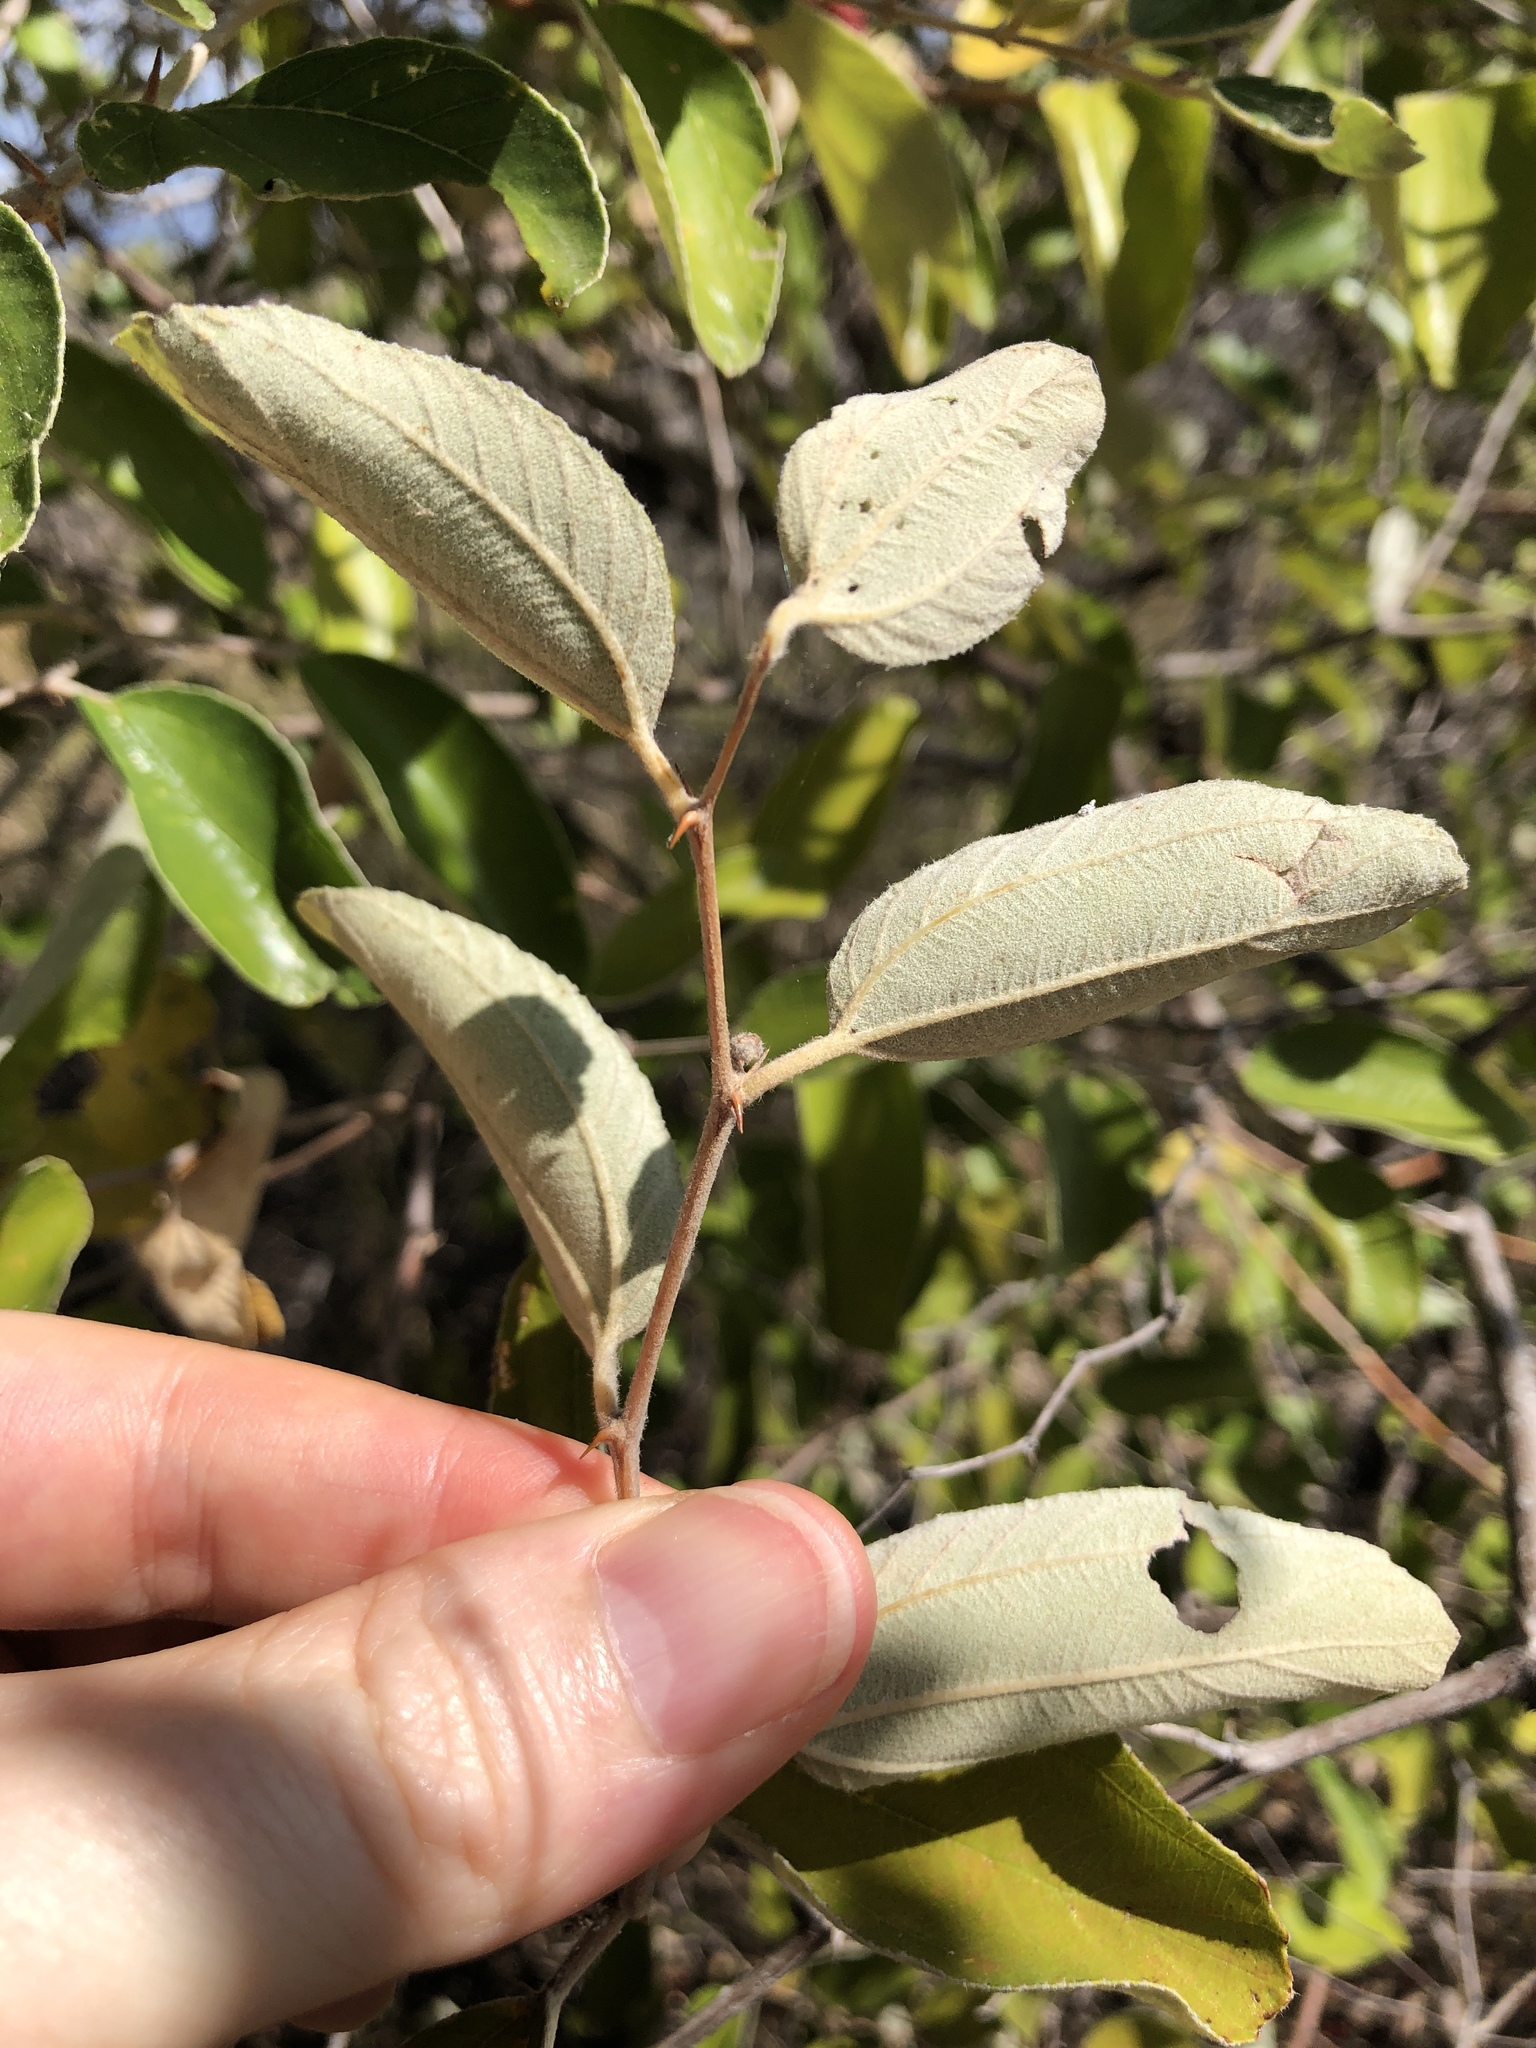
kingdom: Plantae
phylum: Tracheophyta
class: Magnoliopsida
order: Rosales
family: Rhamnaceae
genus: Ziziphus
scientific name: Ziziphus mauritiana
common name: Indian jujube
